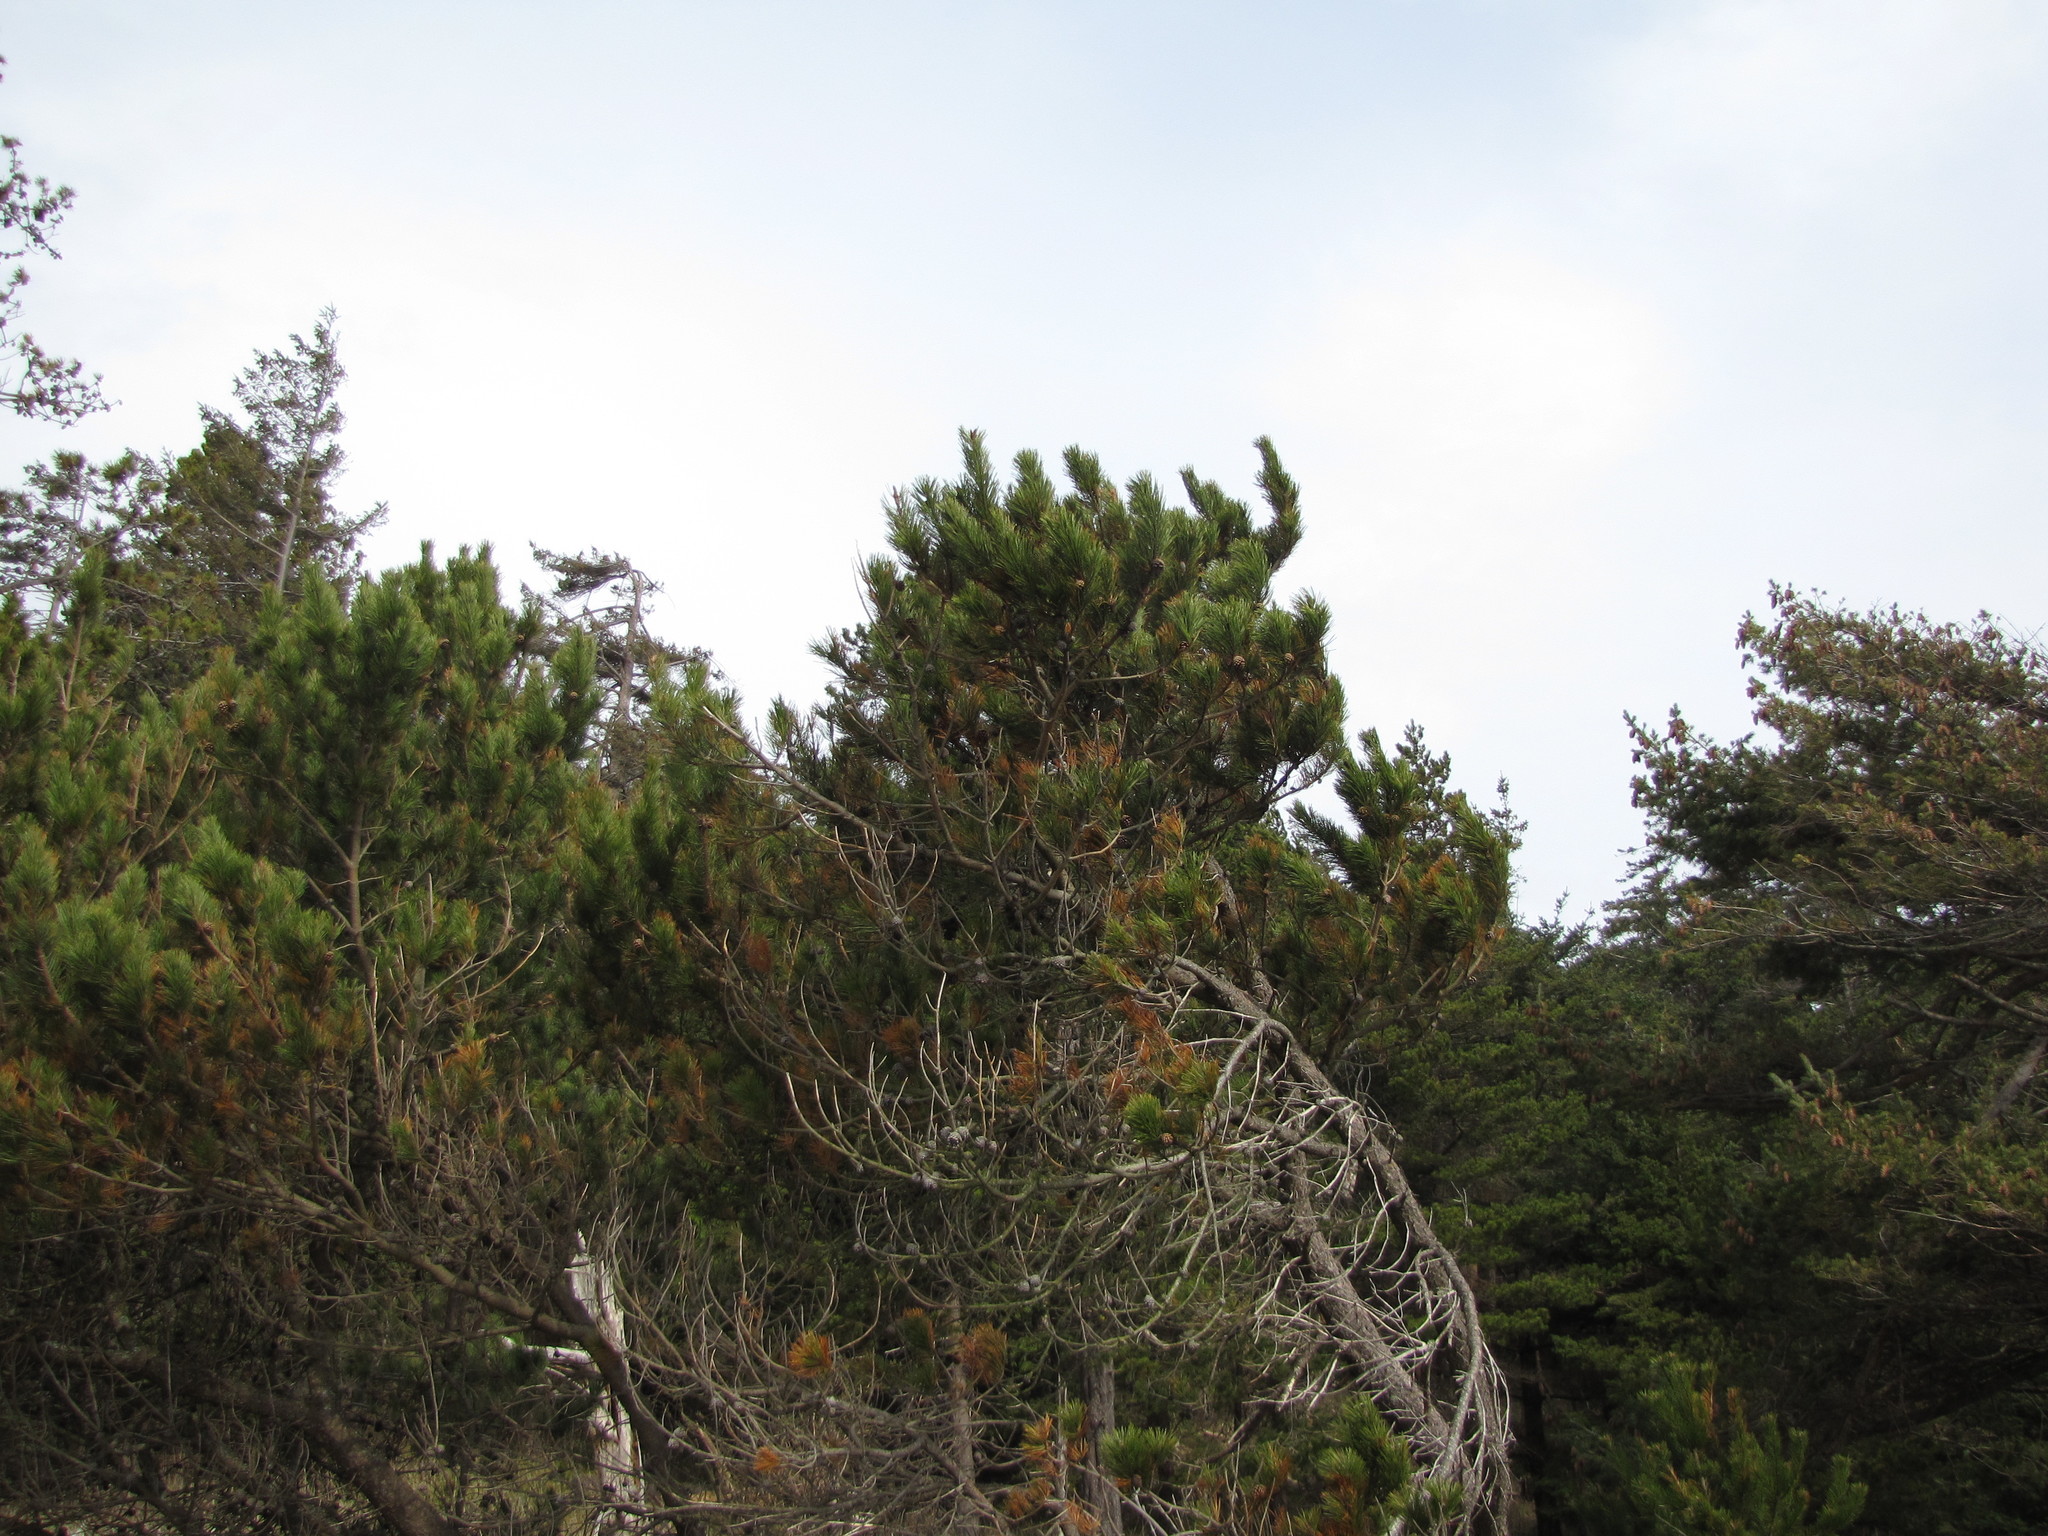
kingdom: Plantae
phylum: Tracheophyta
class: Pinopsida
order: Pinales
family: Pinaceae
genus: Pinus
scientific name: Pinus contorta
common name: Lodgepole pine
